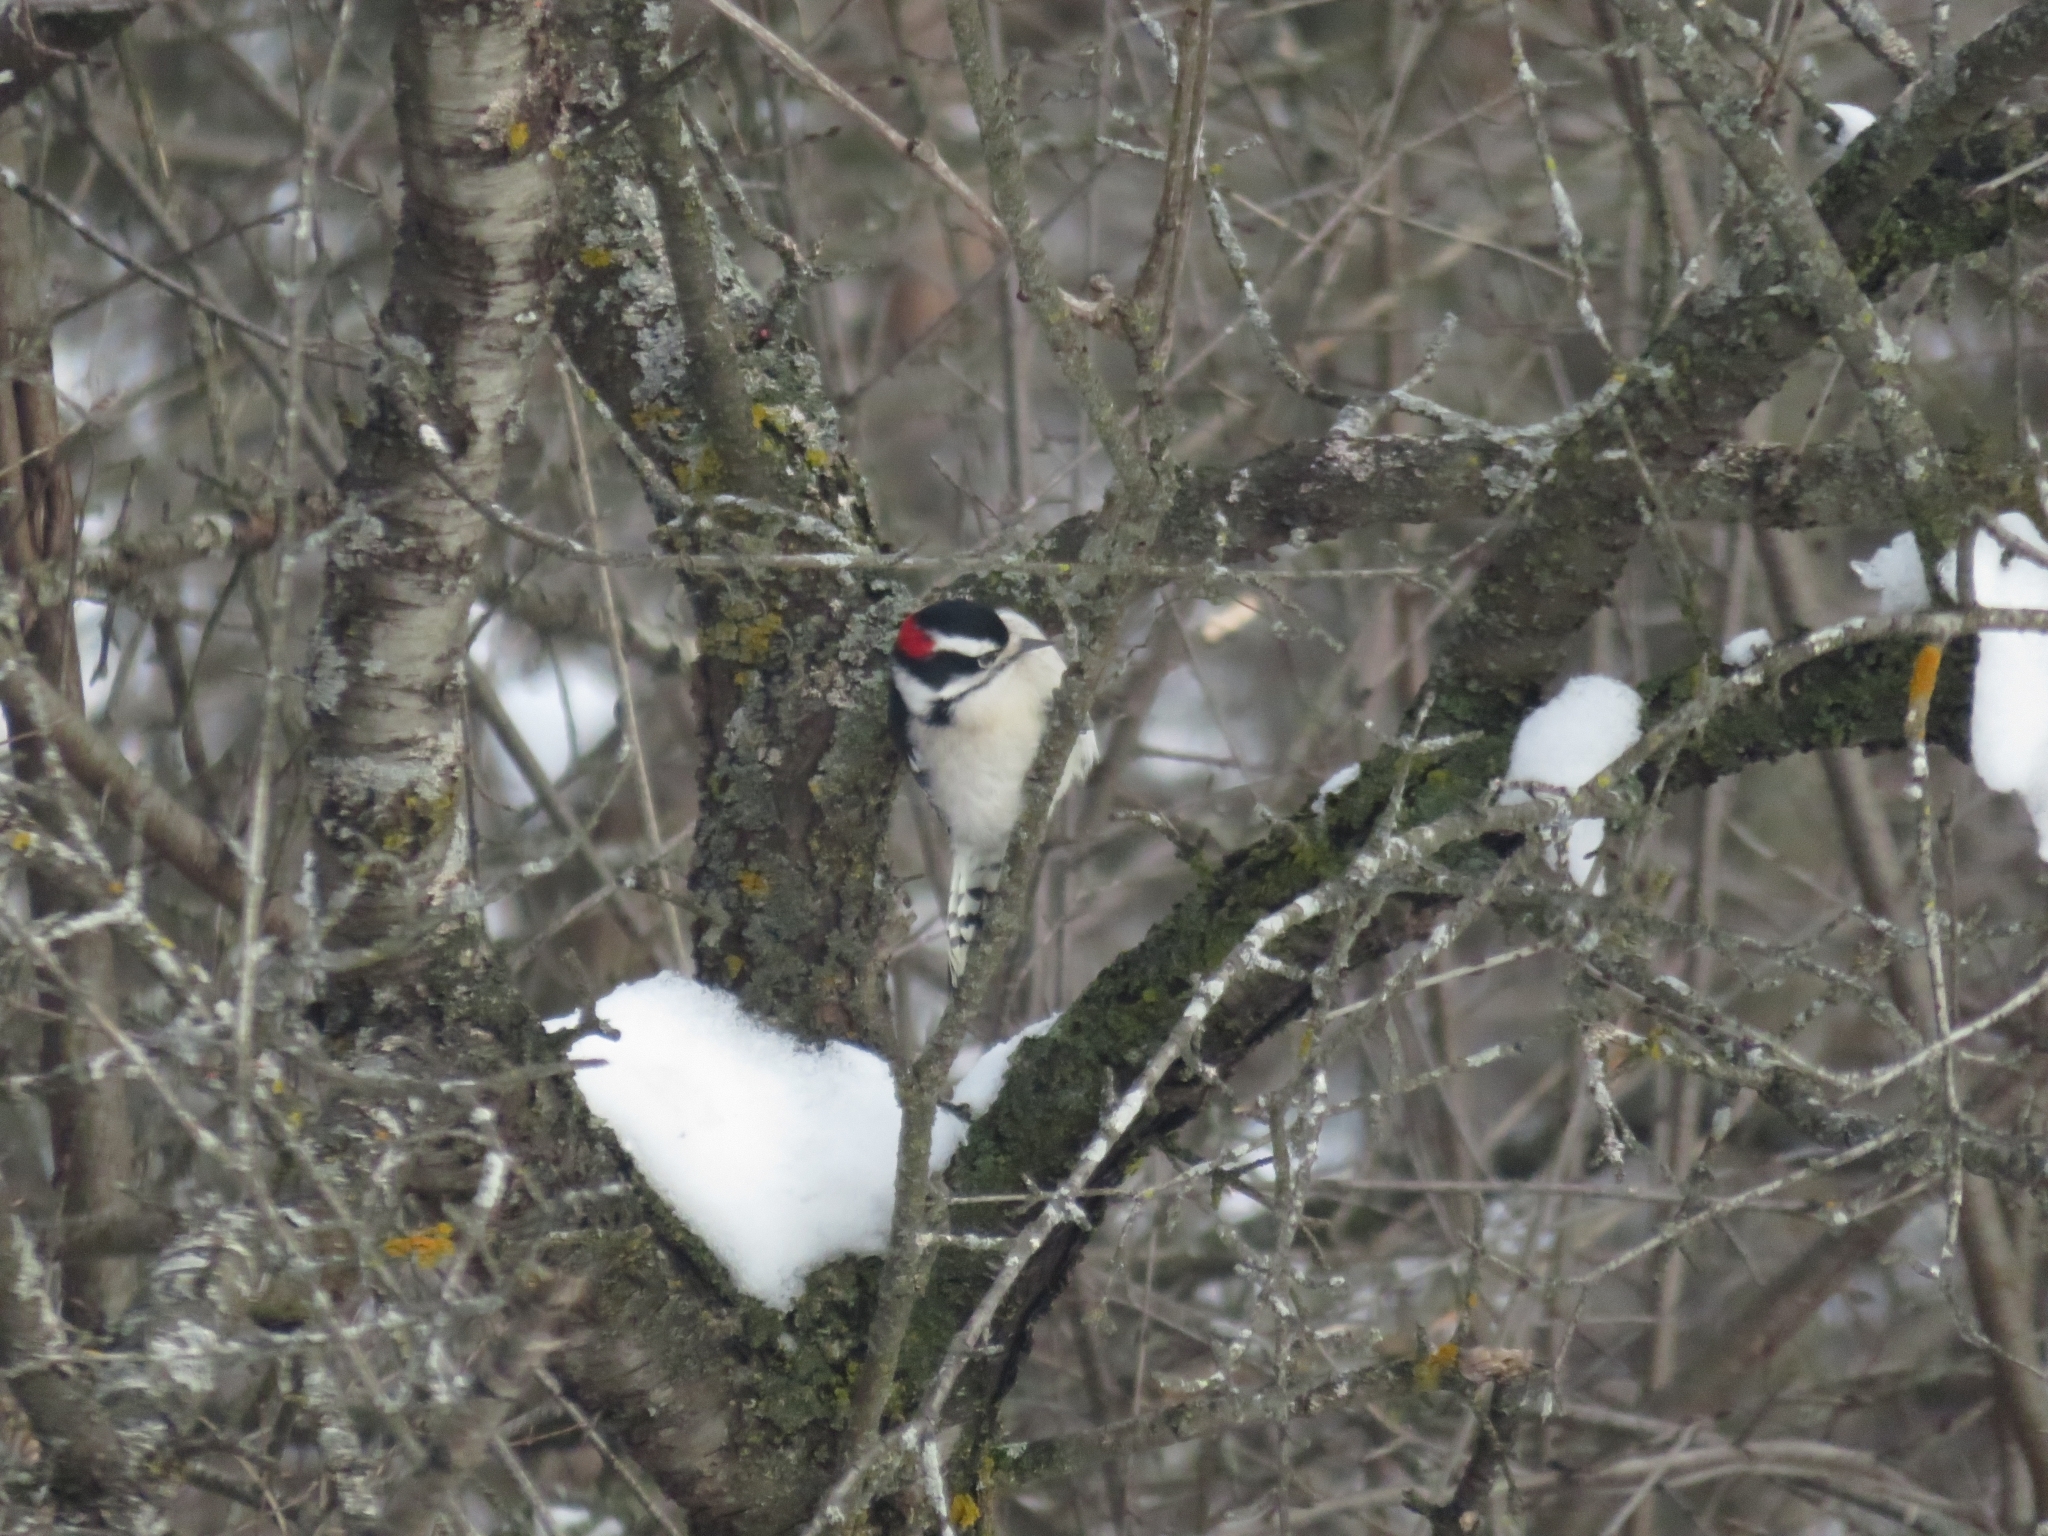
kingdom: Animalia
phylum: Chordata
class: Aves
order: Piciformes
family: Picidae
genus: Dryobates
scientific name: Dryobates pubescens
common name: Downy woodpecker
